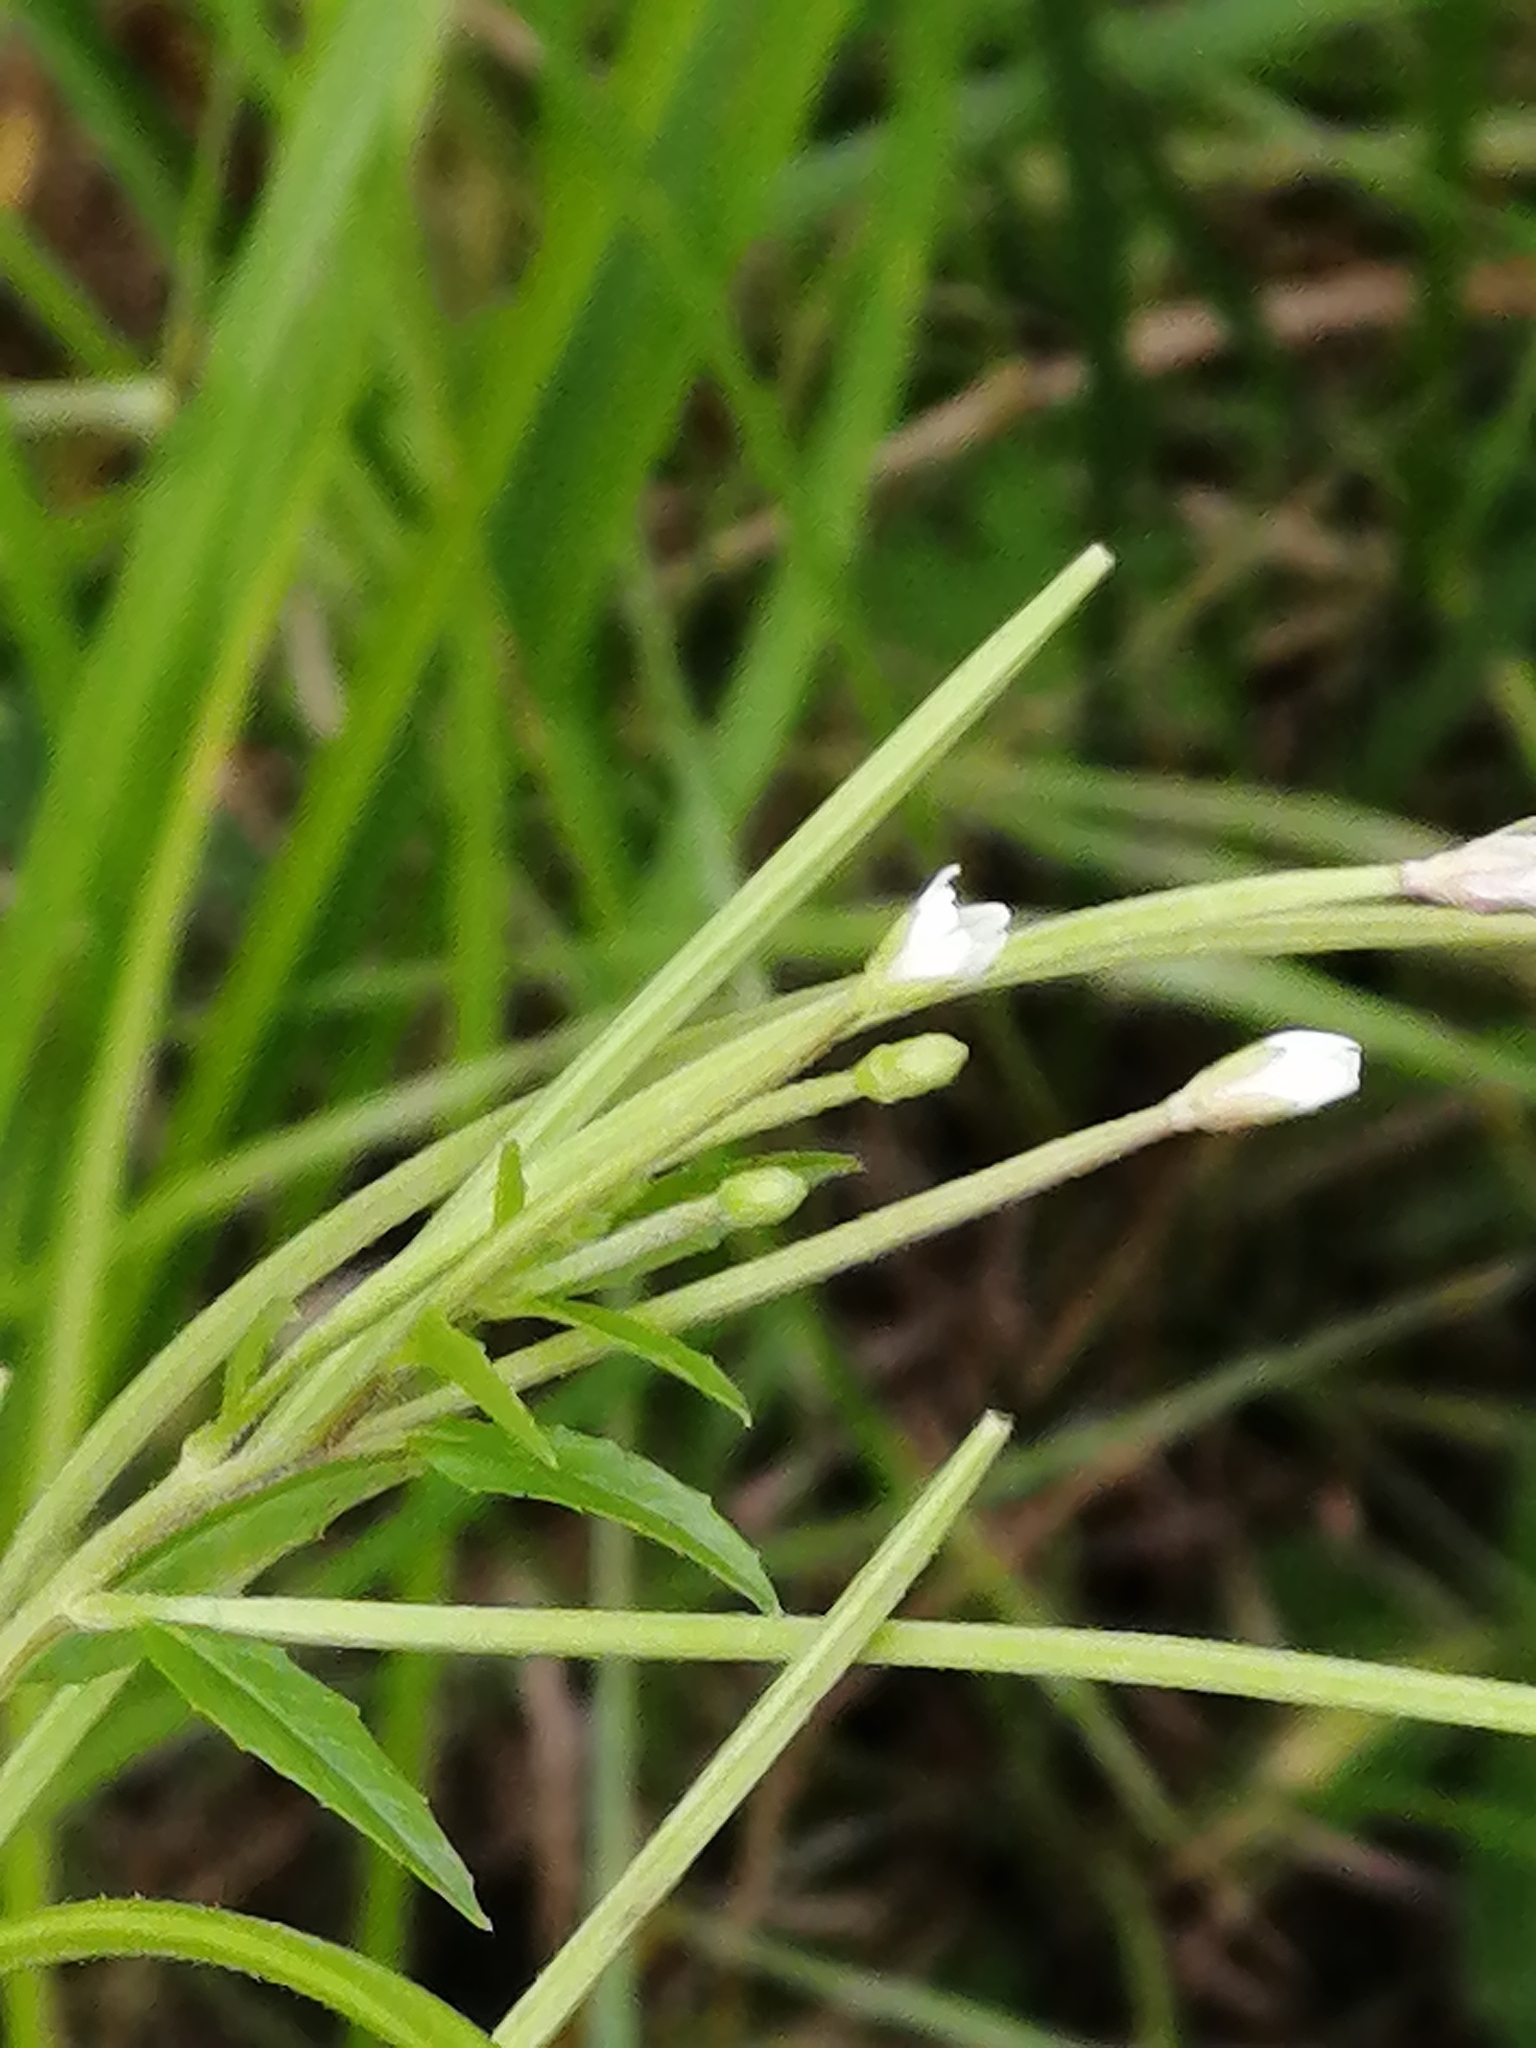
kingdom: Plantae
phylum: Tracheophyta
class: Magnoliopsida
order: Myrtales
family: Onagraceae
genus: Epilobium
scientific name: Epilobium pseudorubescens
